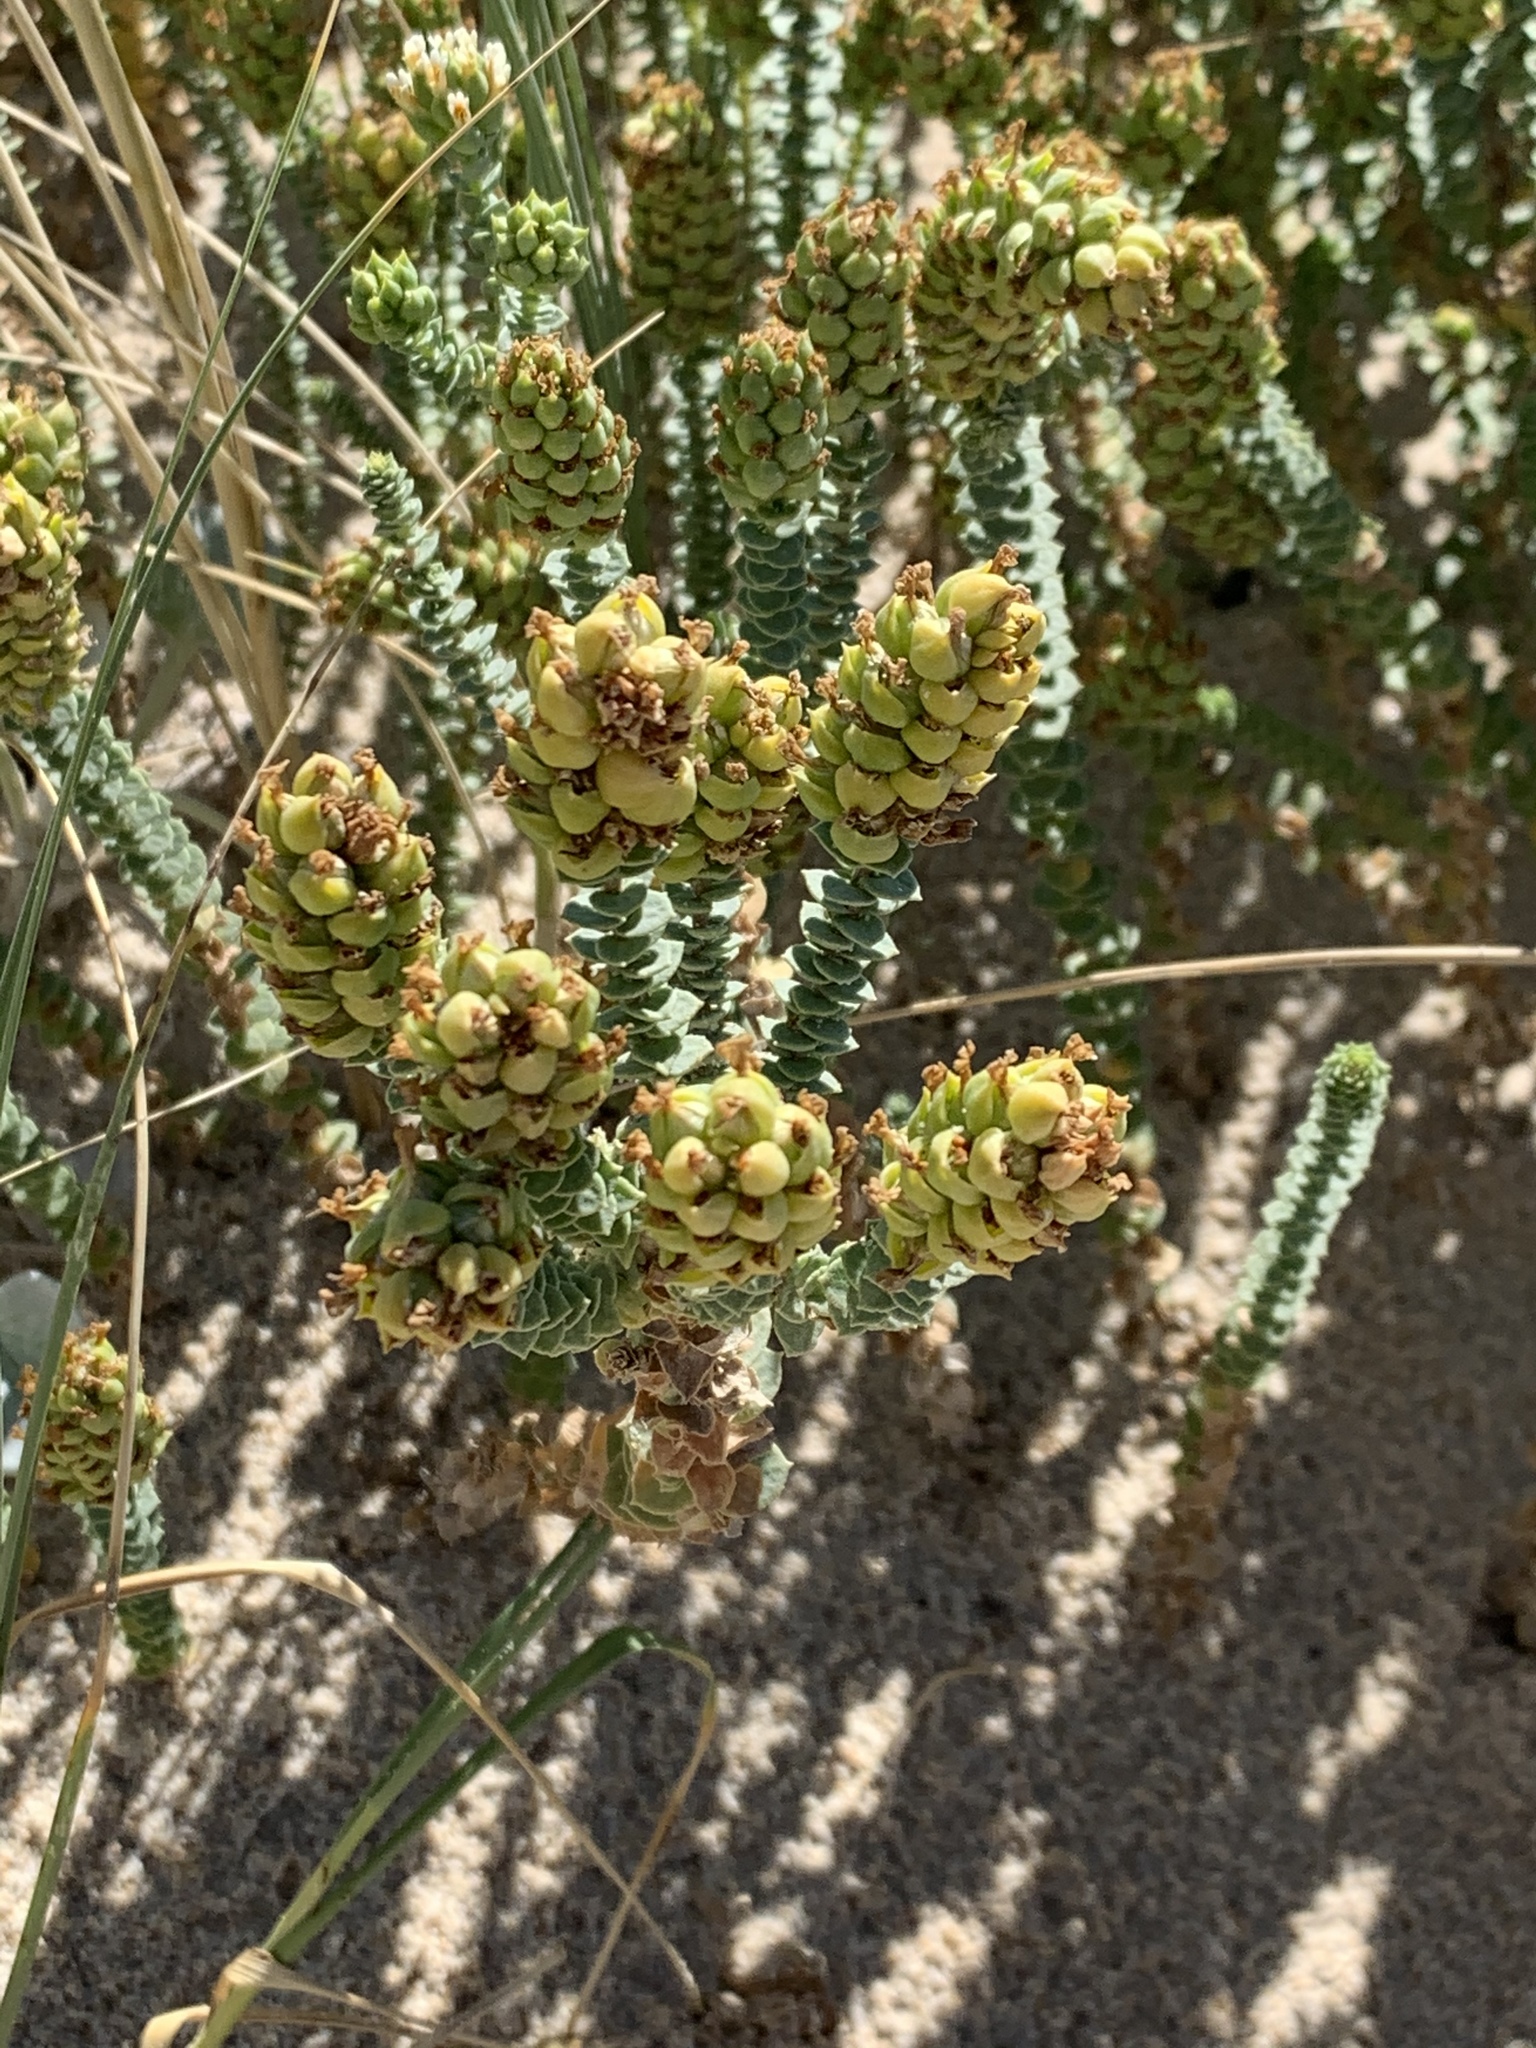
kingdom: Plantae
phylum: Tracheophyta
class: Magnoliopsida
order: Lamiales
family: Scrophulariaceae
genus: Hebenstretia
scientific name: Hebenstretia cordata
